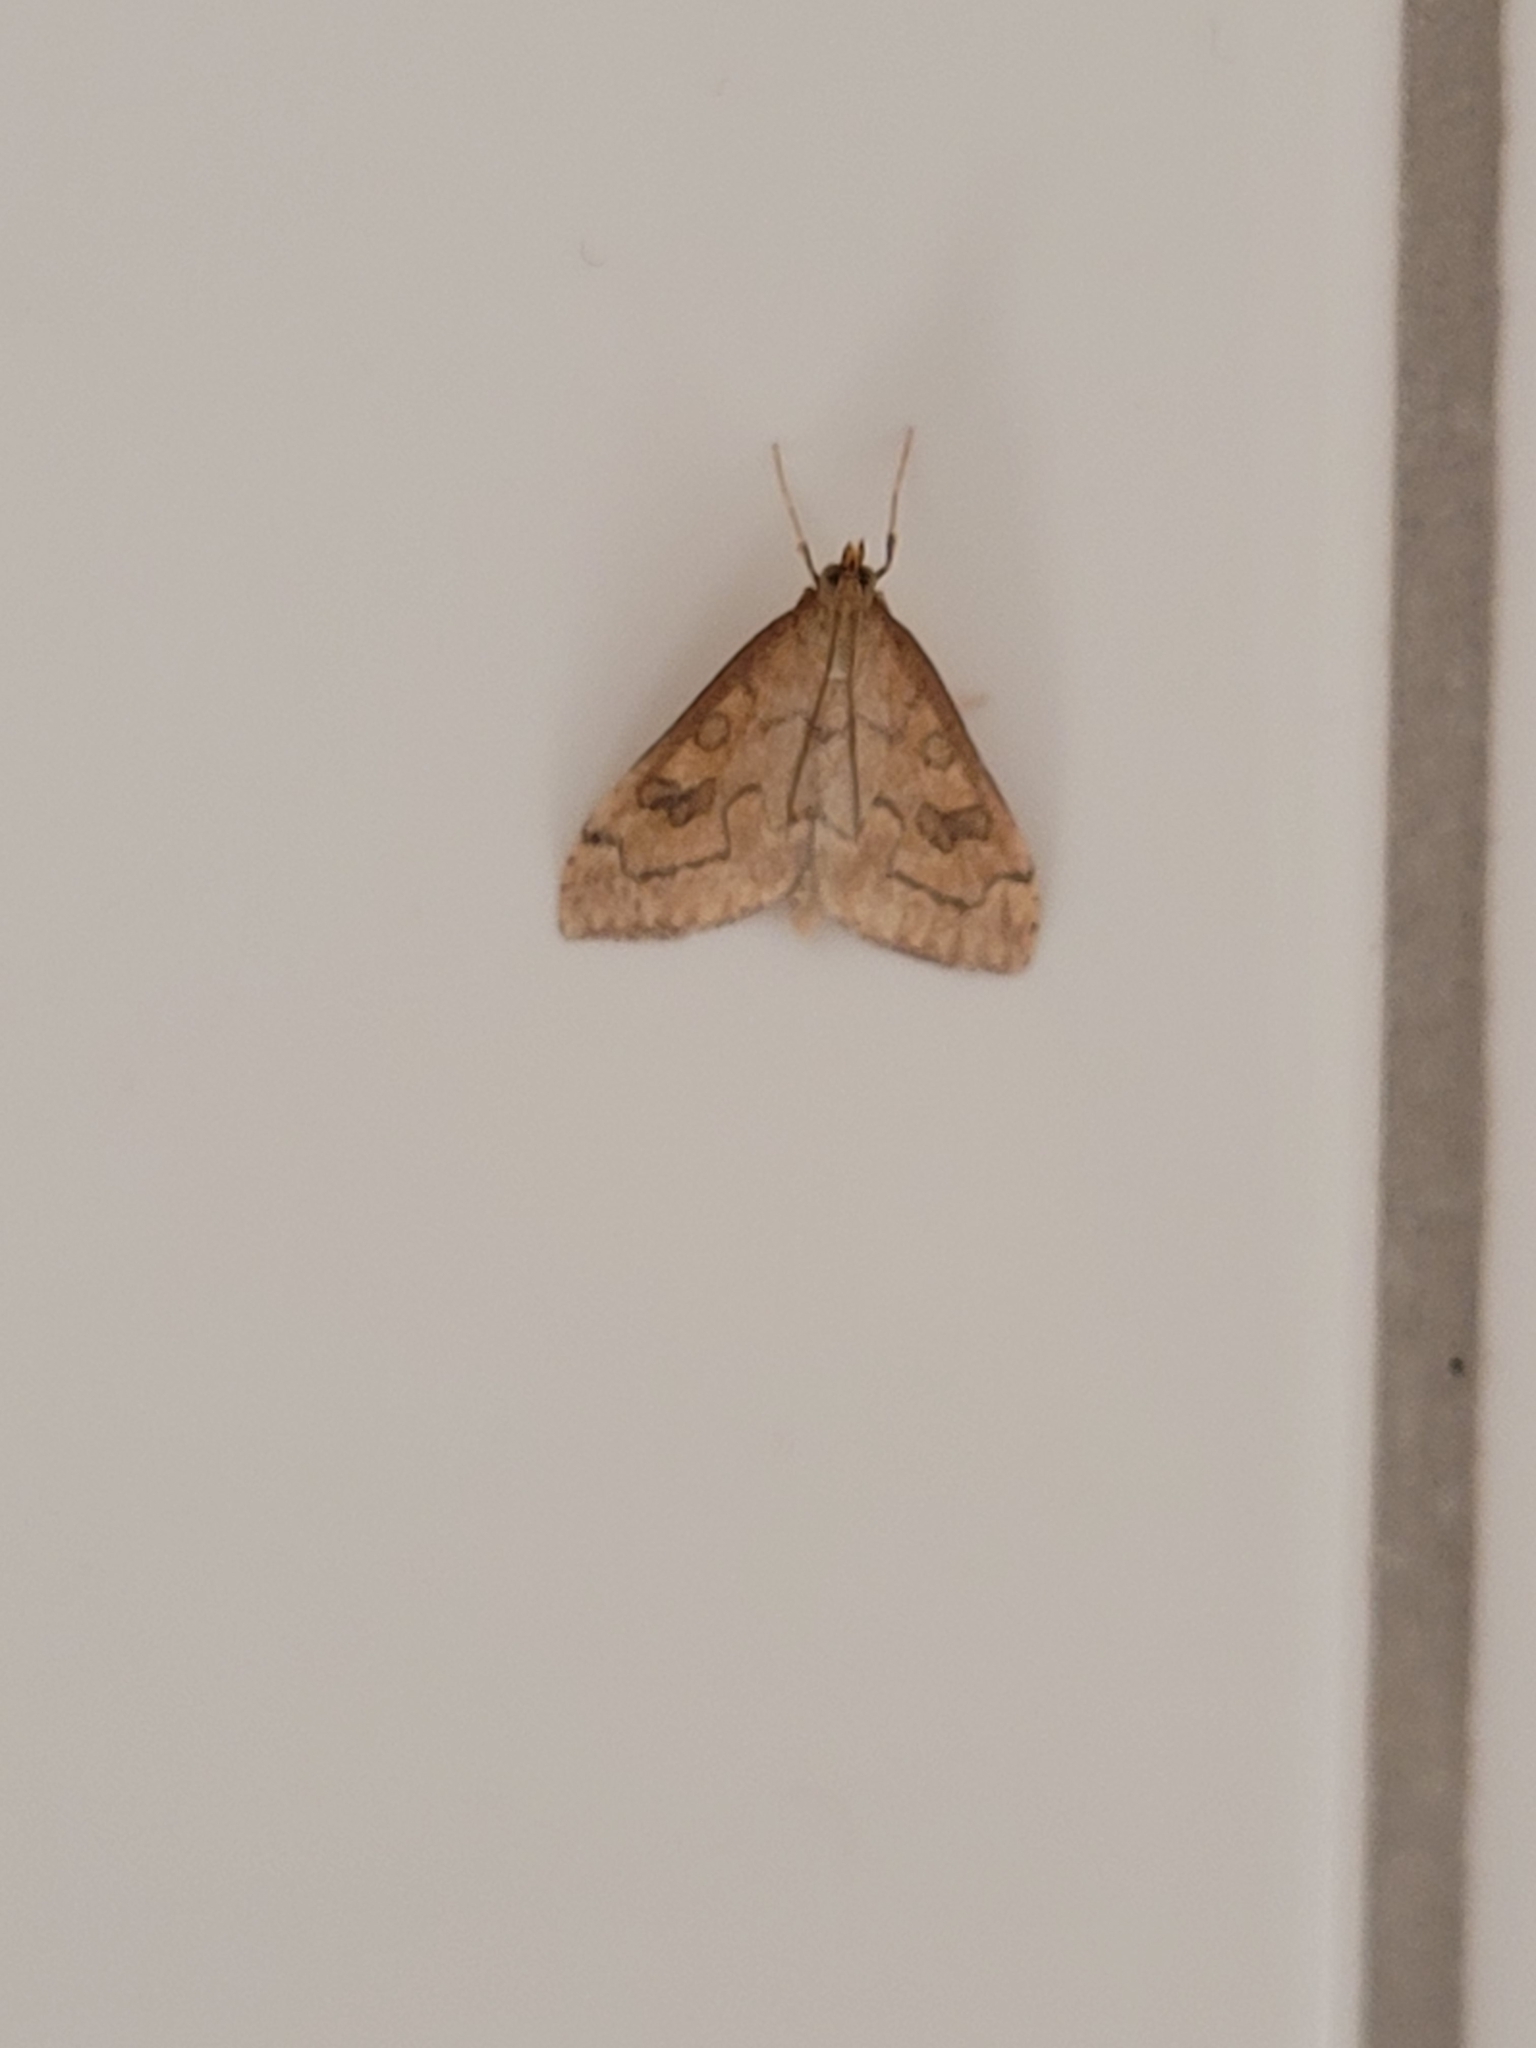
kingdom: Animalia
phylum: Arthropoda
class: Insecta
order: Lepidoptera
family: Crambidae
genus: Udea
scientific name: Udea profundalis
